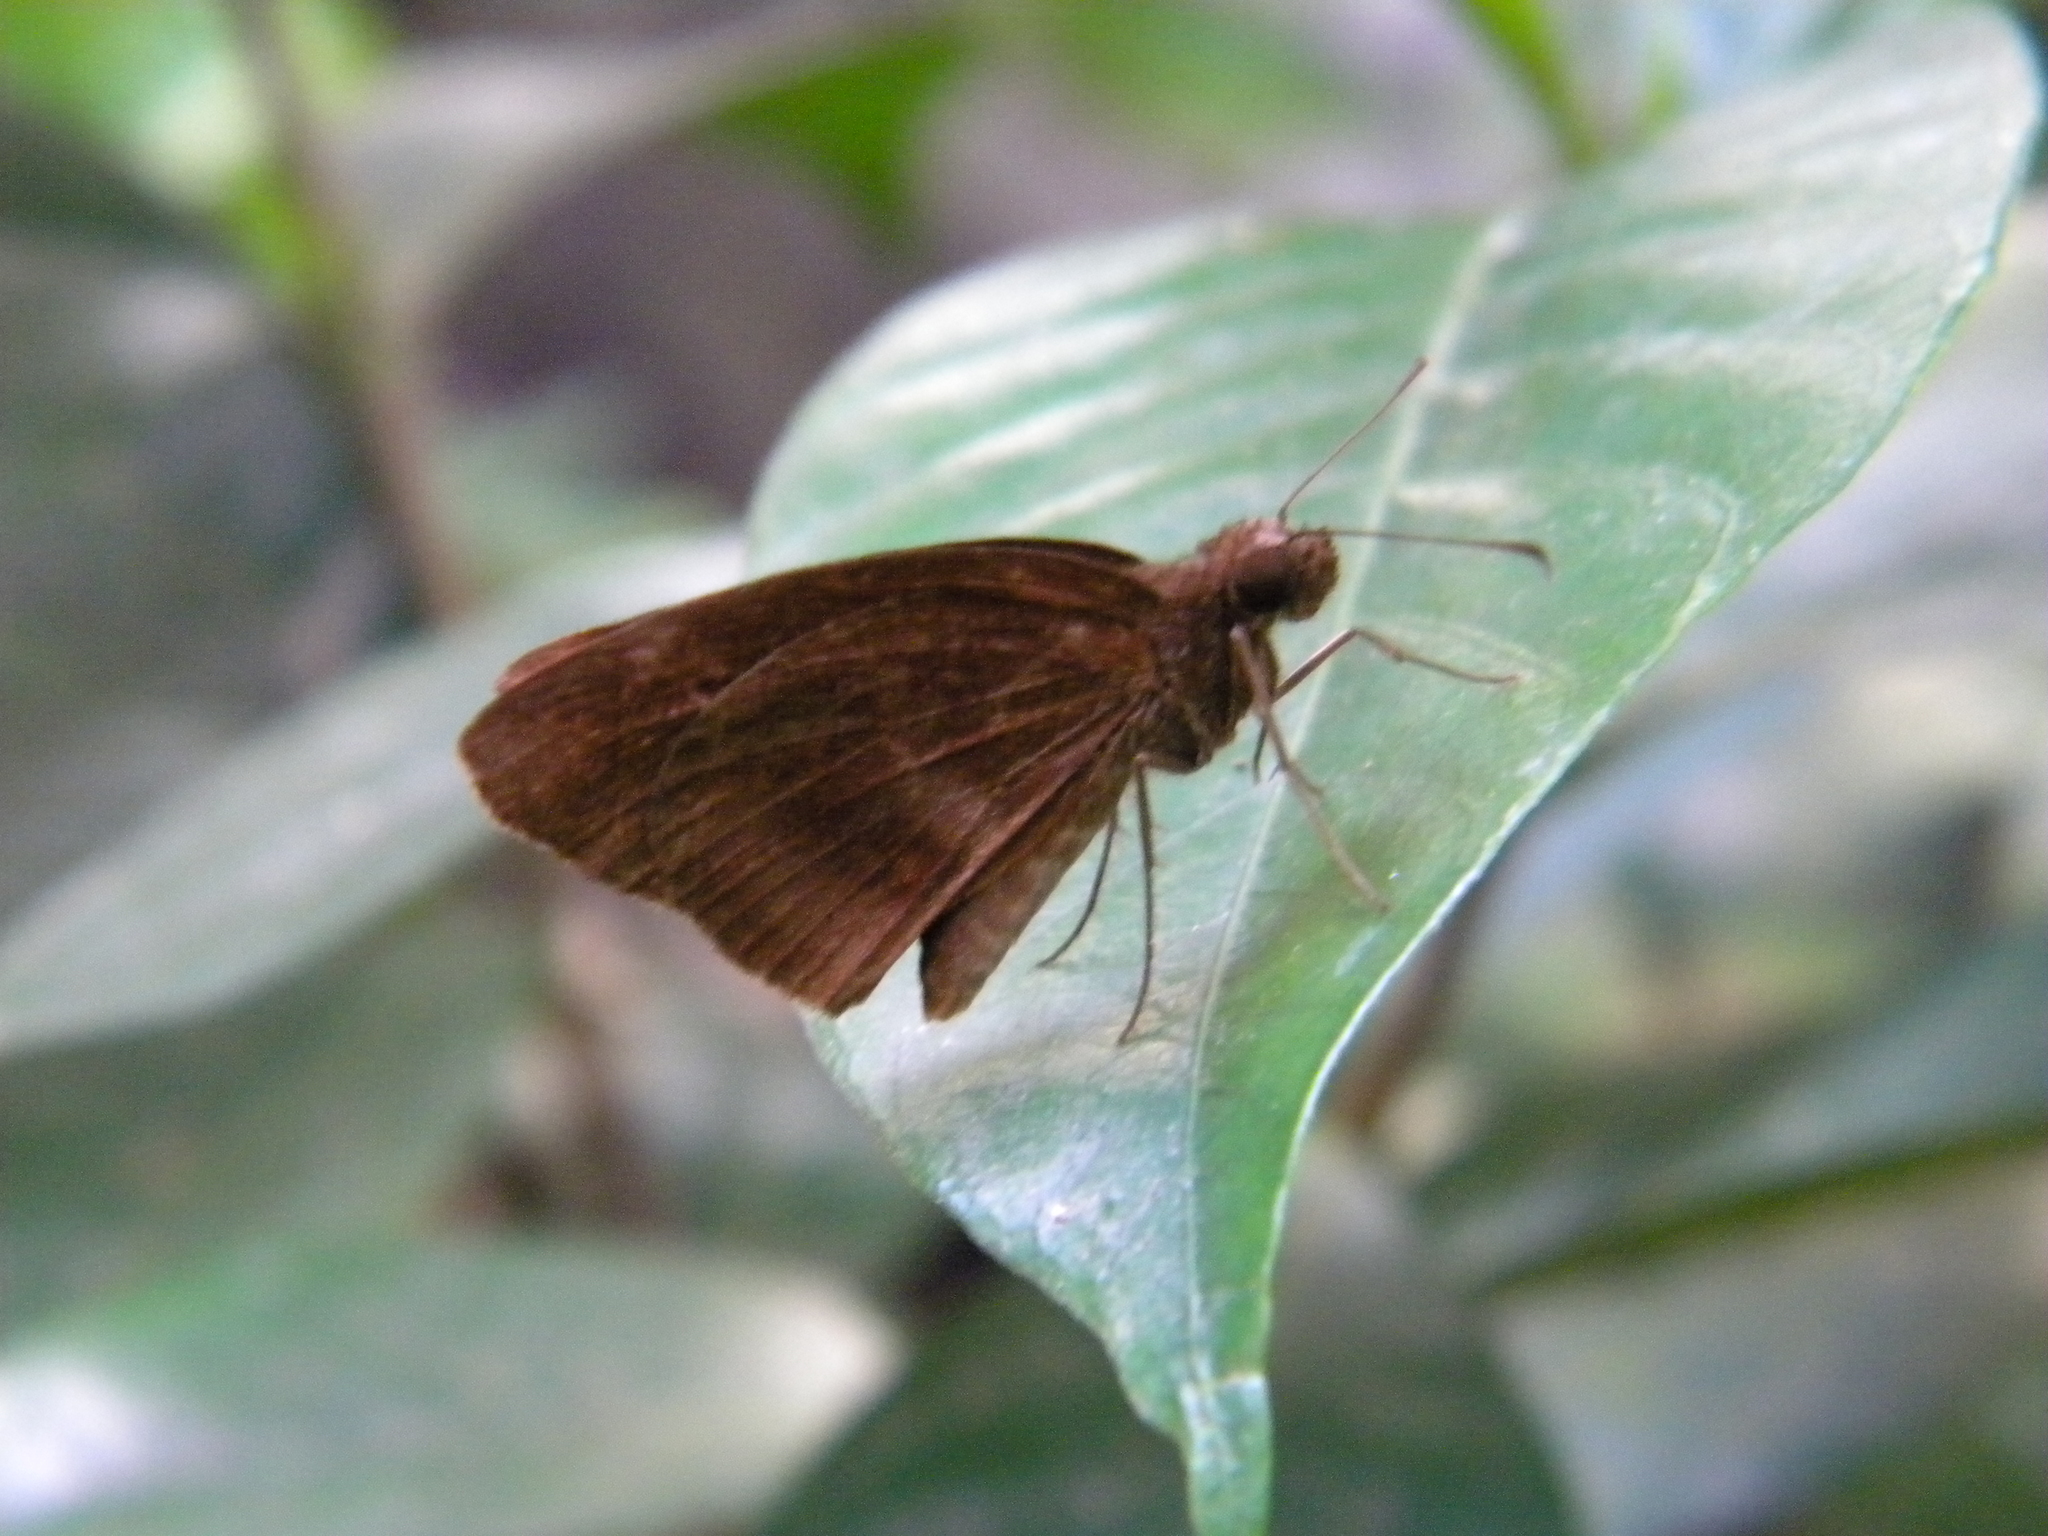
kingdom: Animalia
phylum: Arthropoda
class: Insecta
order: Lepidoptera
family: Hesperiidae
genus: Psolos
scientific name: Psolos fuligo
